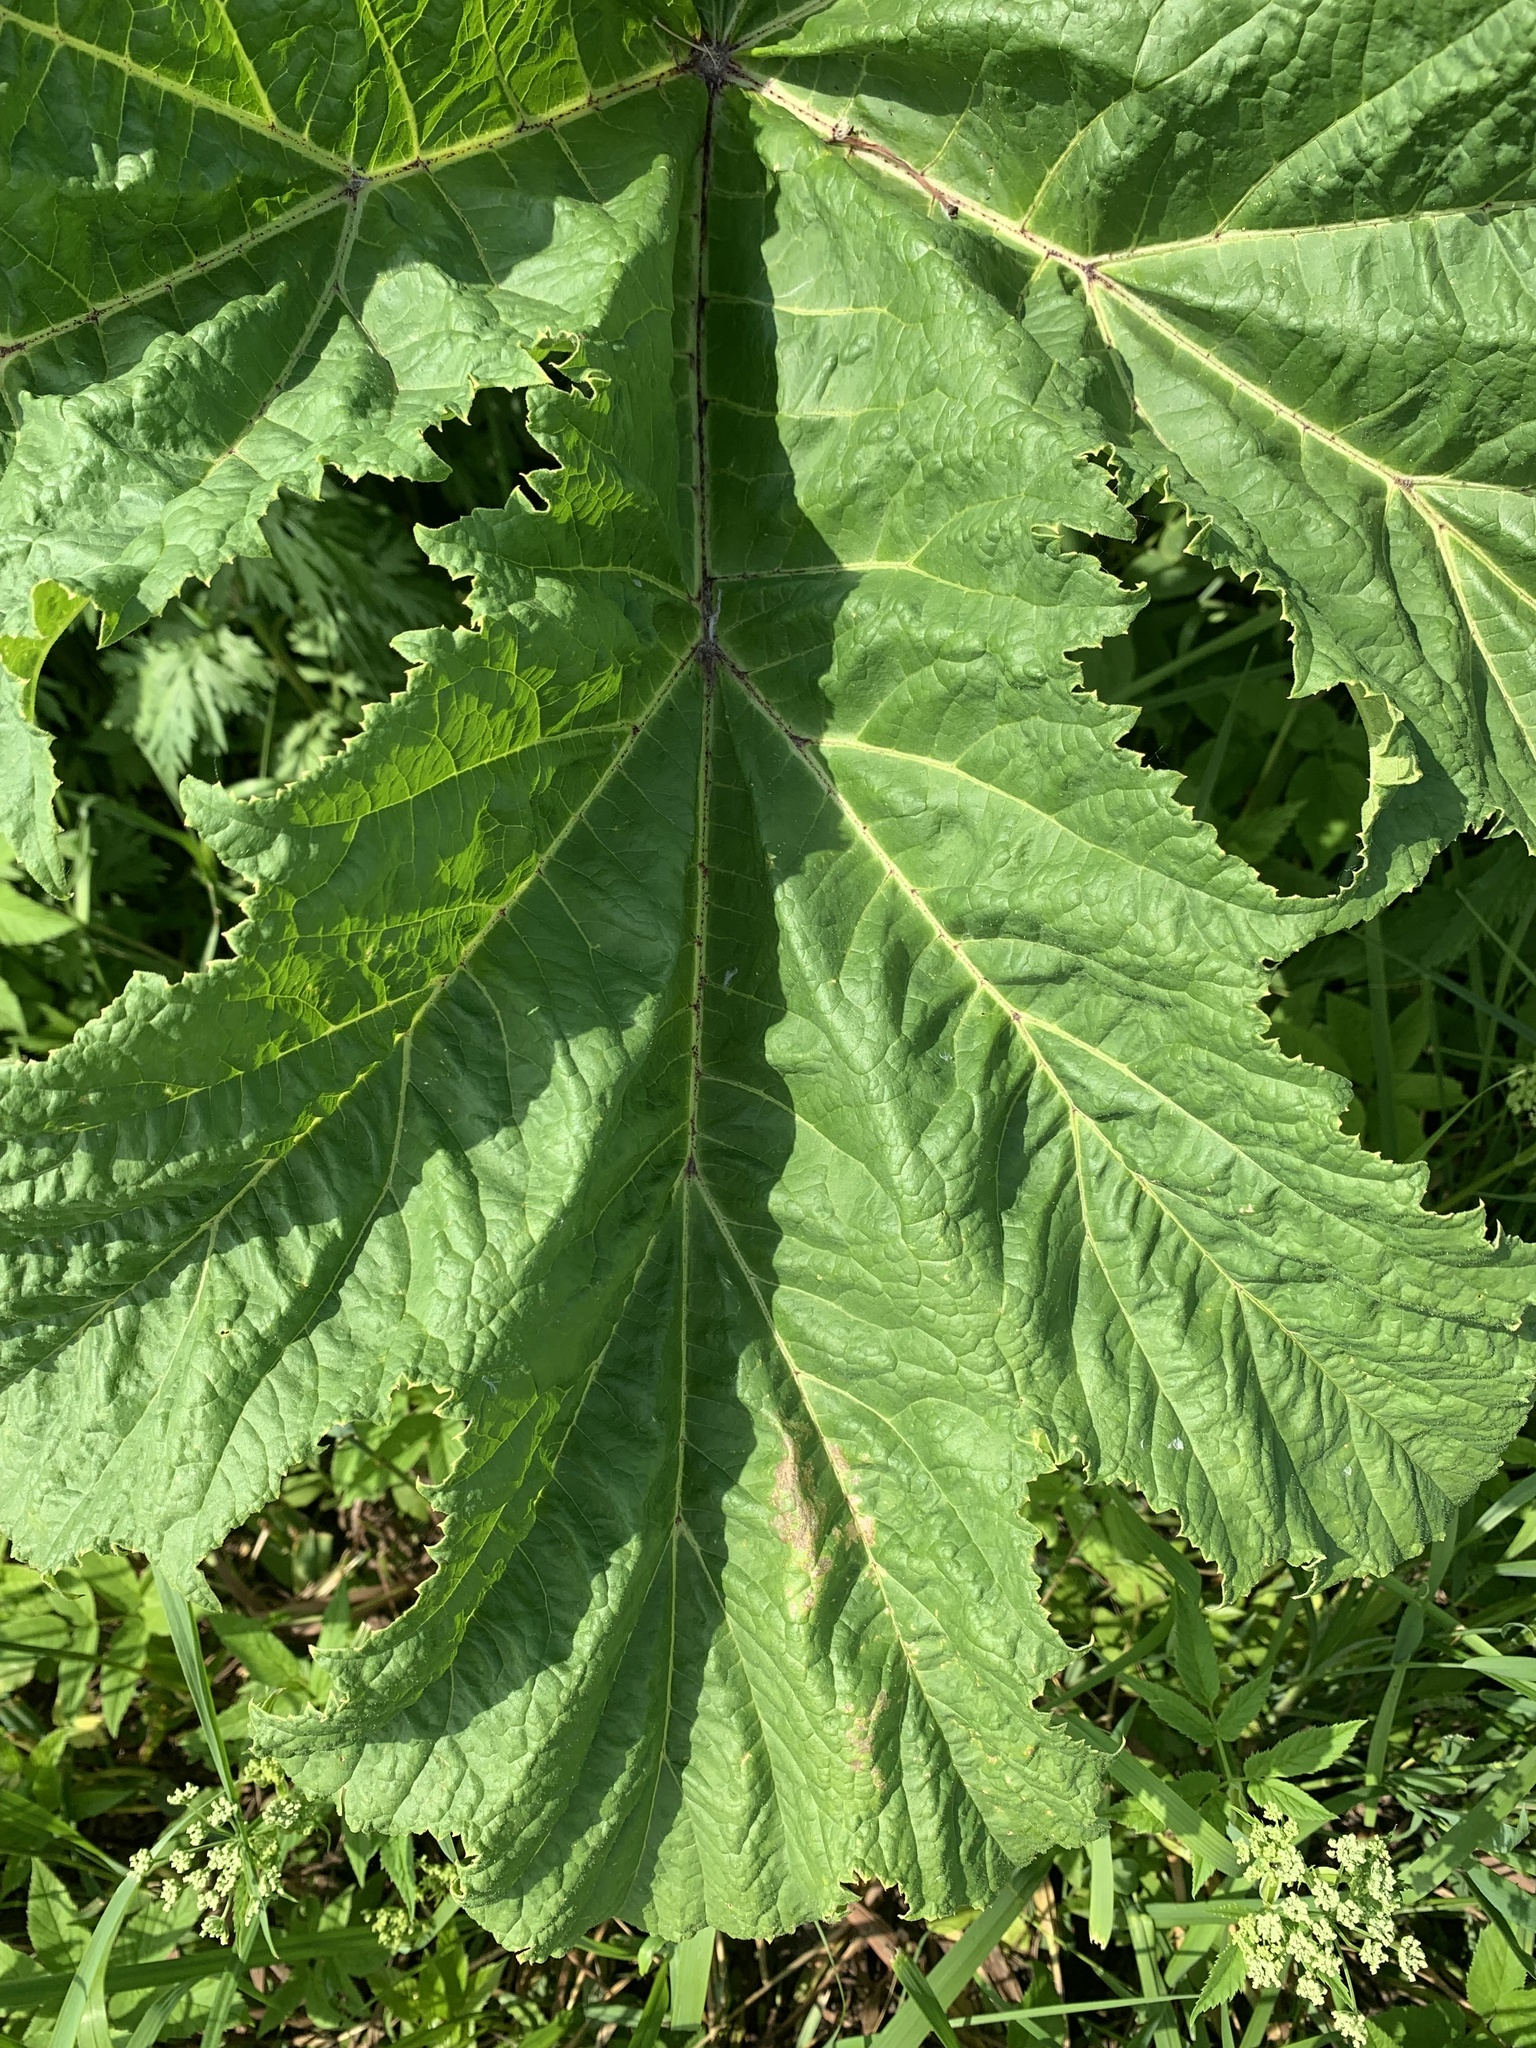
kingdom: Plantae
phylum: Tracheophyta
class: Magnoliopsida
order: Apiales
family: Apiaceae
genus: Heracleum
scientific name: Heracleum sosnowskyi
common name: Sosnowsky's hogweed
